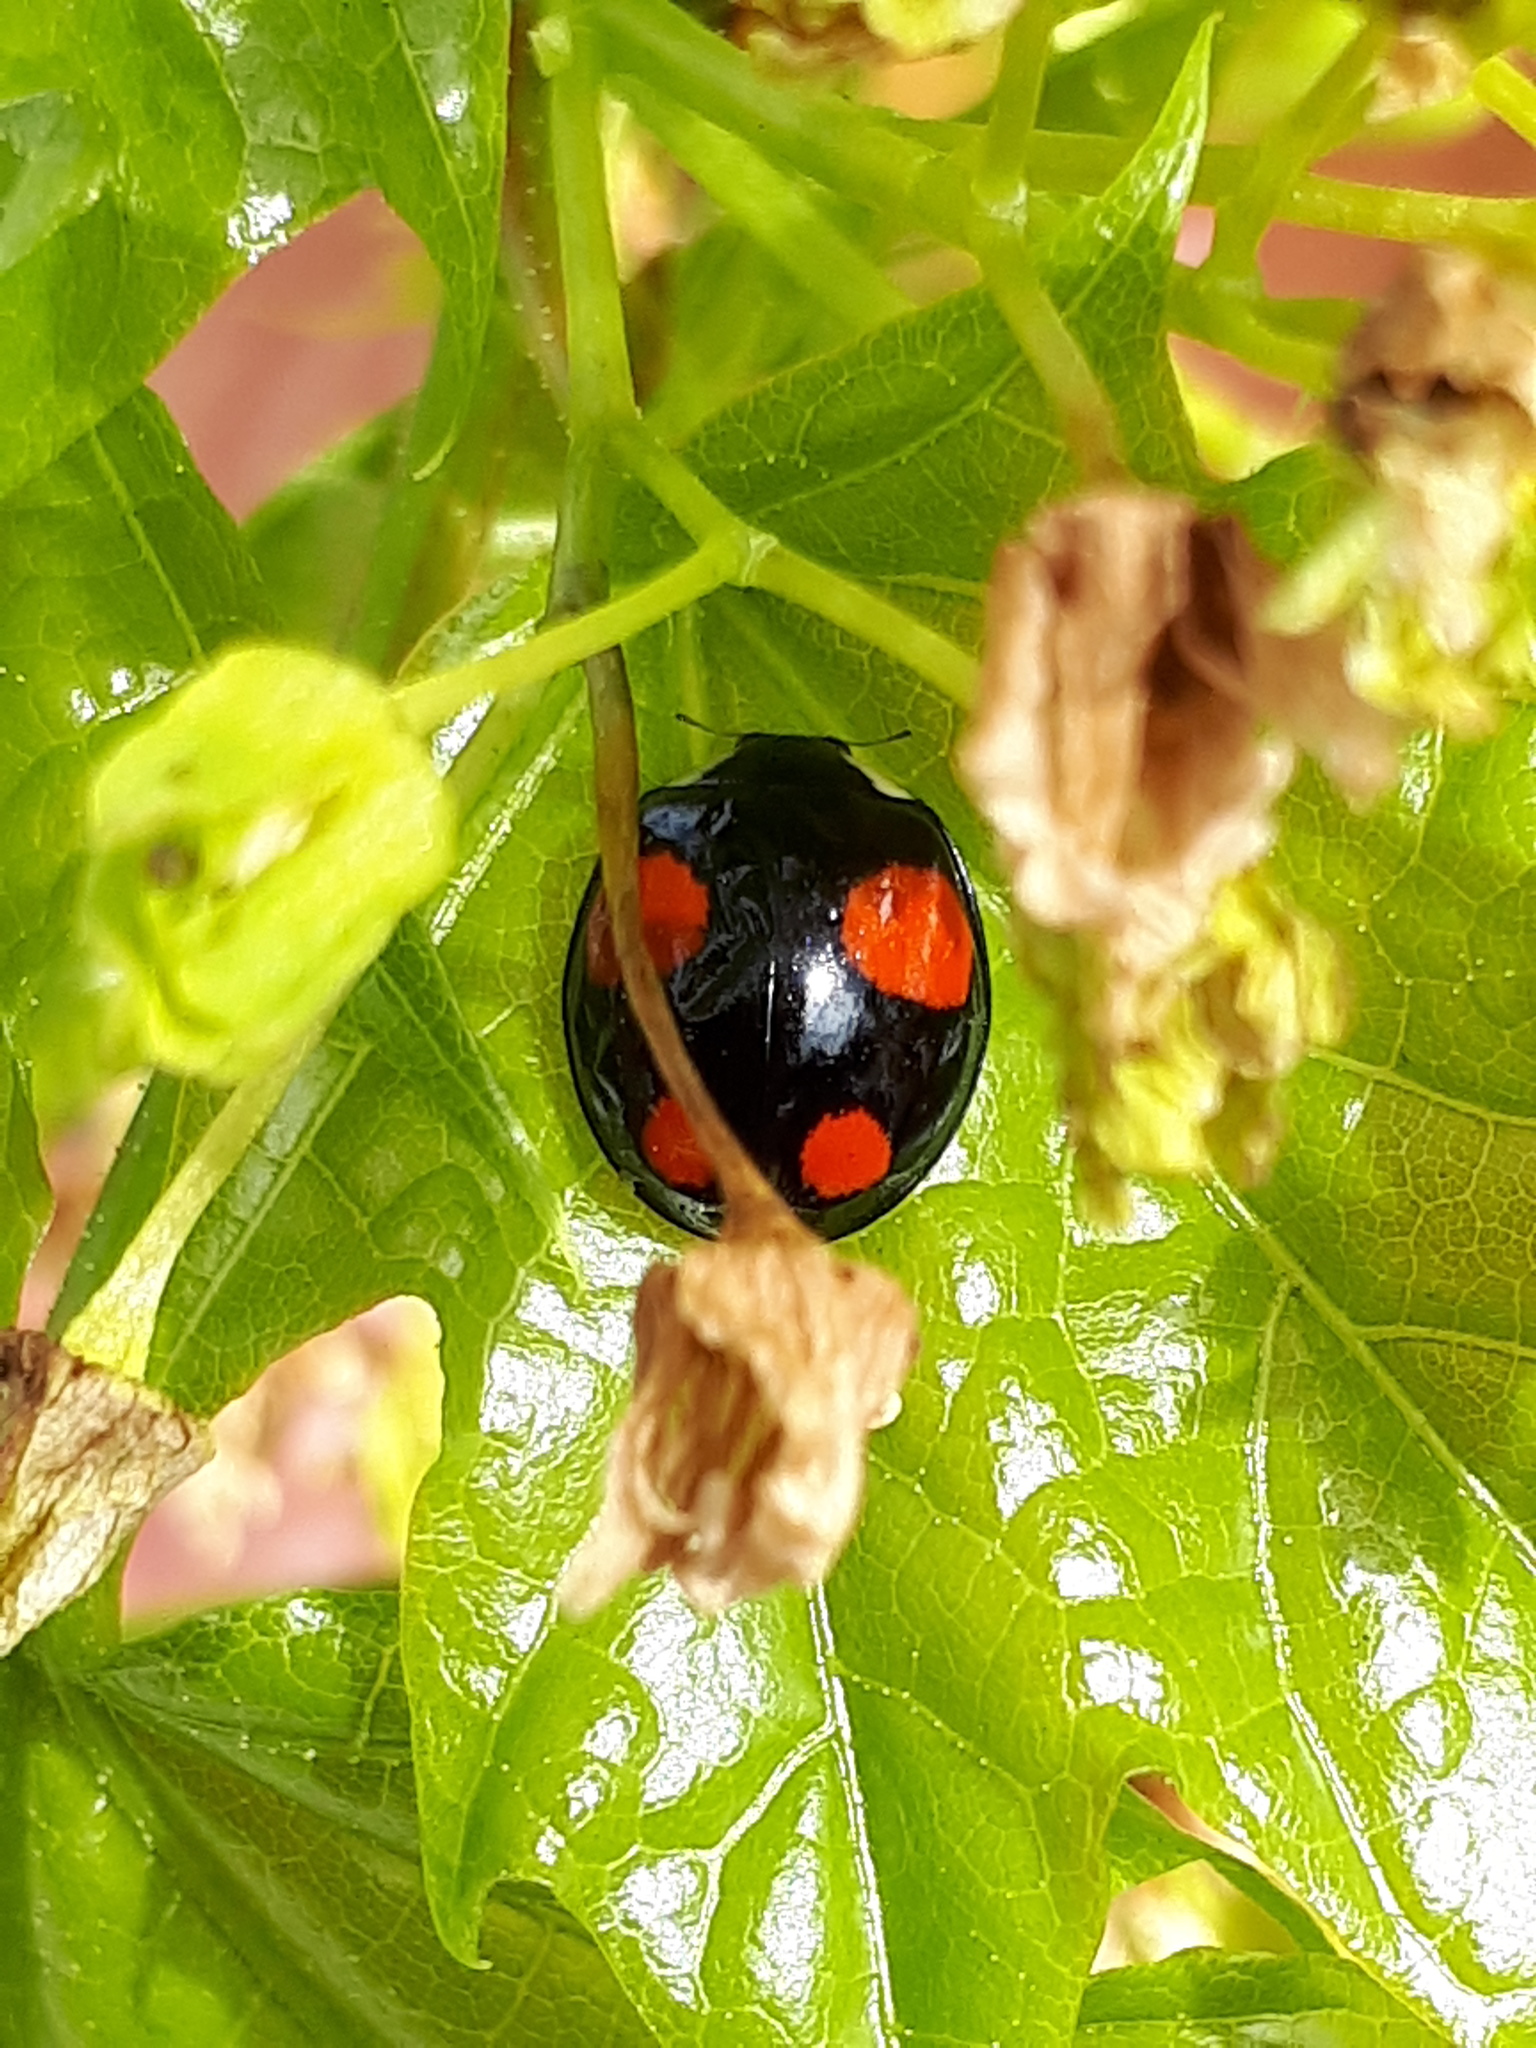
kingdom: Animalia
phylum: Arthropoda
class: Insecta
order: Coleoptera
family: Coccinellidae
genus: Harmonia
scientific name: Harmonia axyridis
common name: Harlequin ladybird
